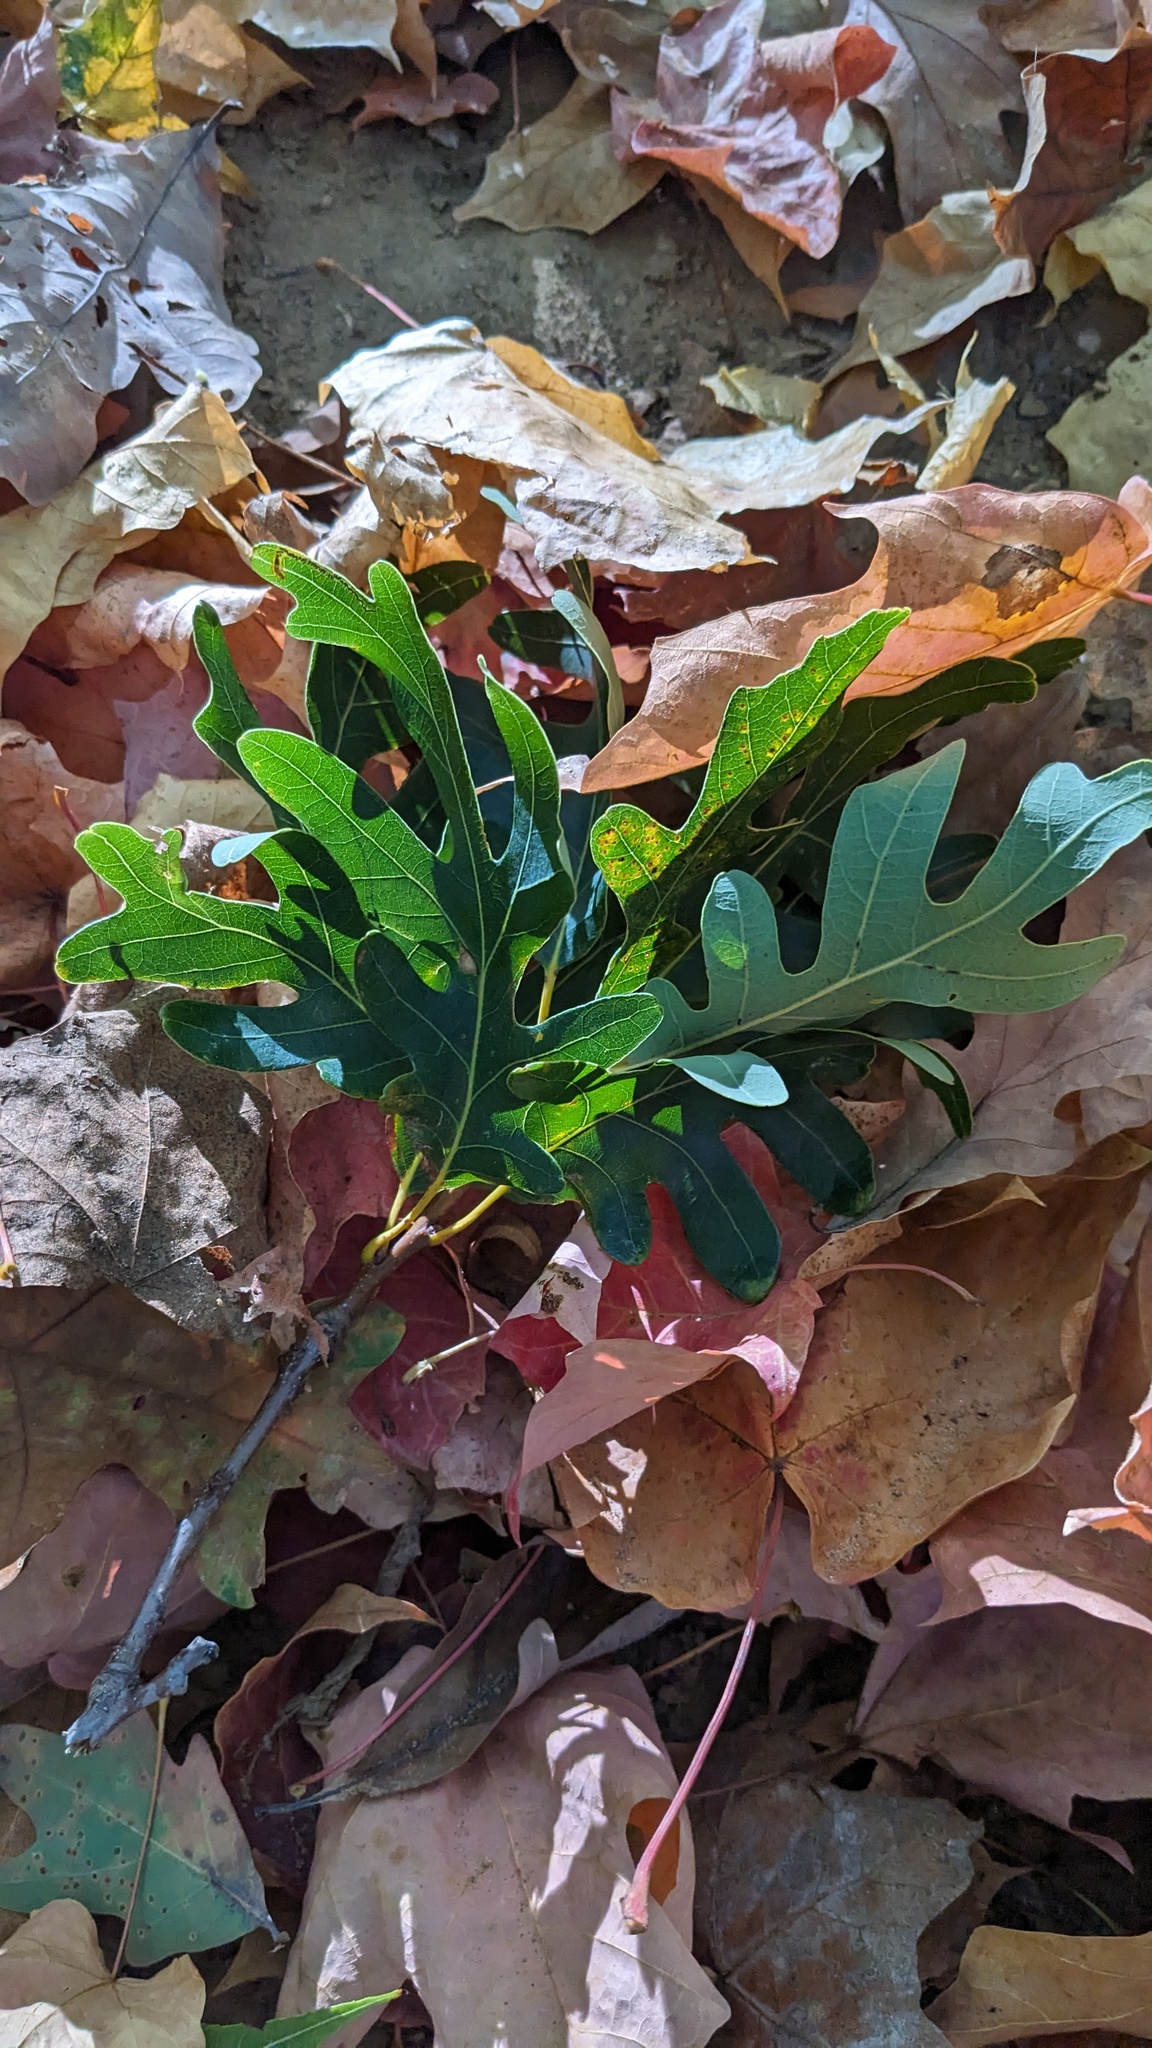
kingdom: Plantae
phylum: Tracheophyta
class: Magnoliopsida
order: Fagales
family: Fagaceae
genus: Quercus
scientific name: Quercus alba
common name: White oak
